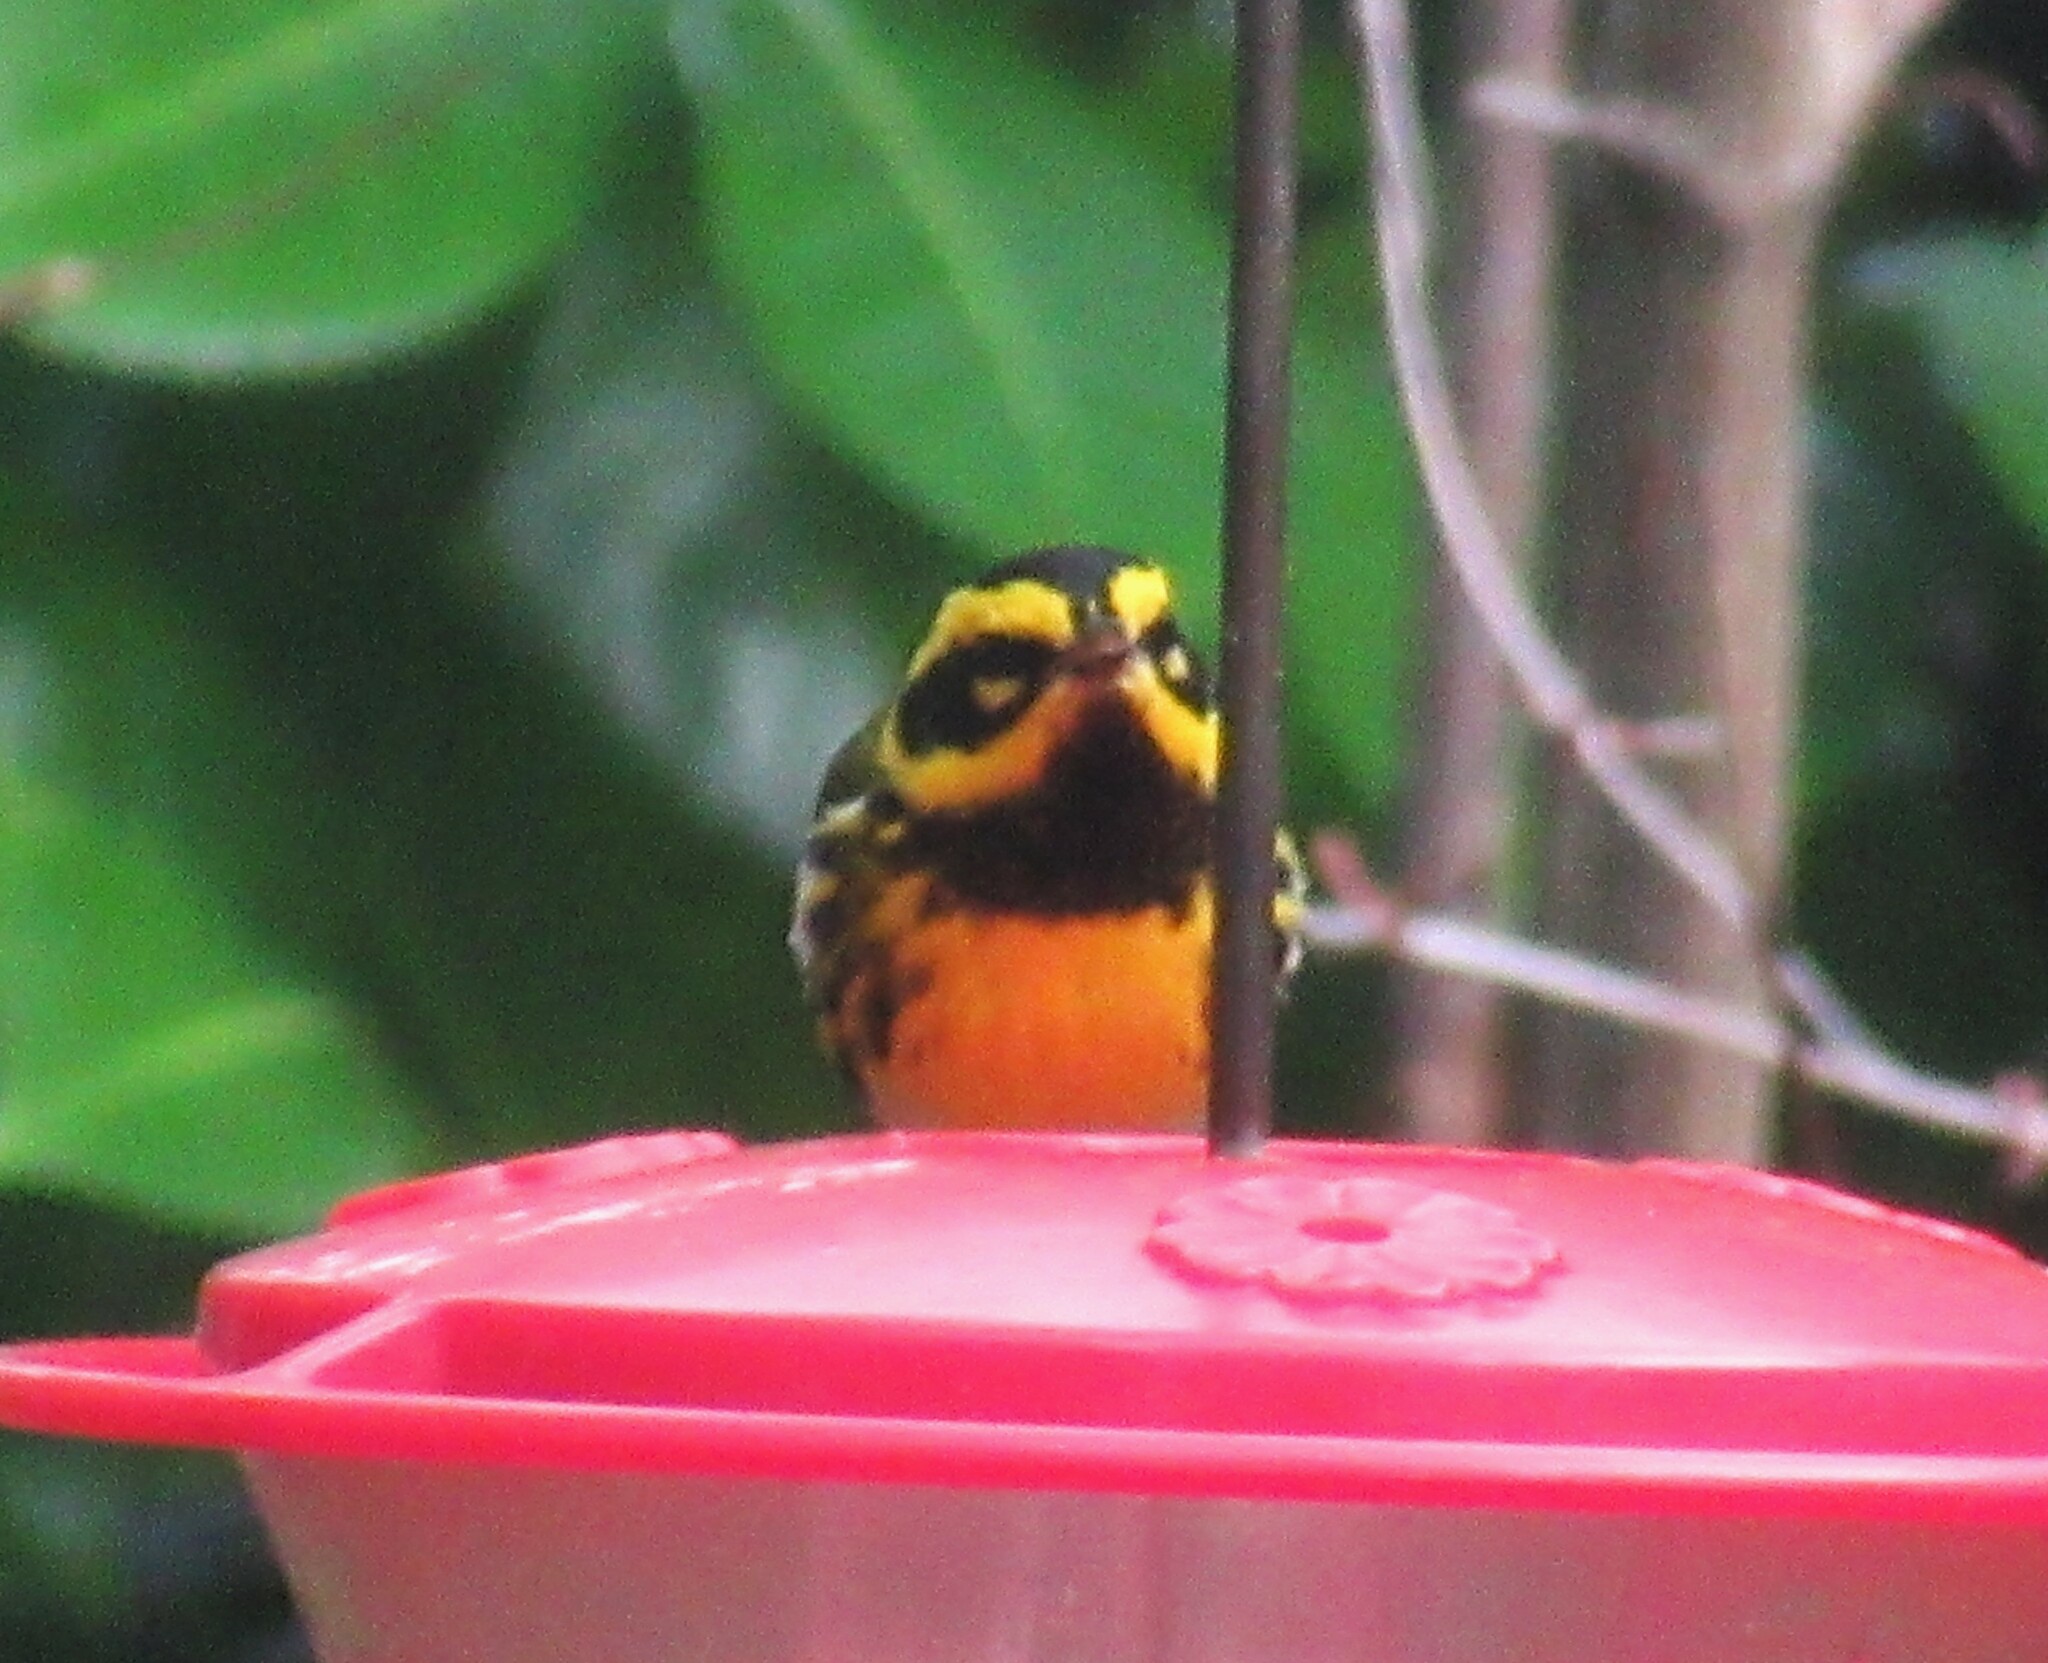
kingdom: Animalia
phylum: Chordata
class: Aves
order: Passeriformes
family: Parulidae
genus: Setophaga
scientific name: Setophaga townsendi
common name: Townsend's warbler
